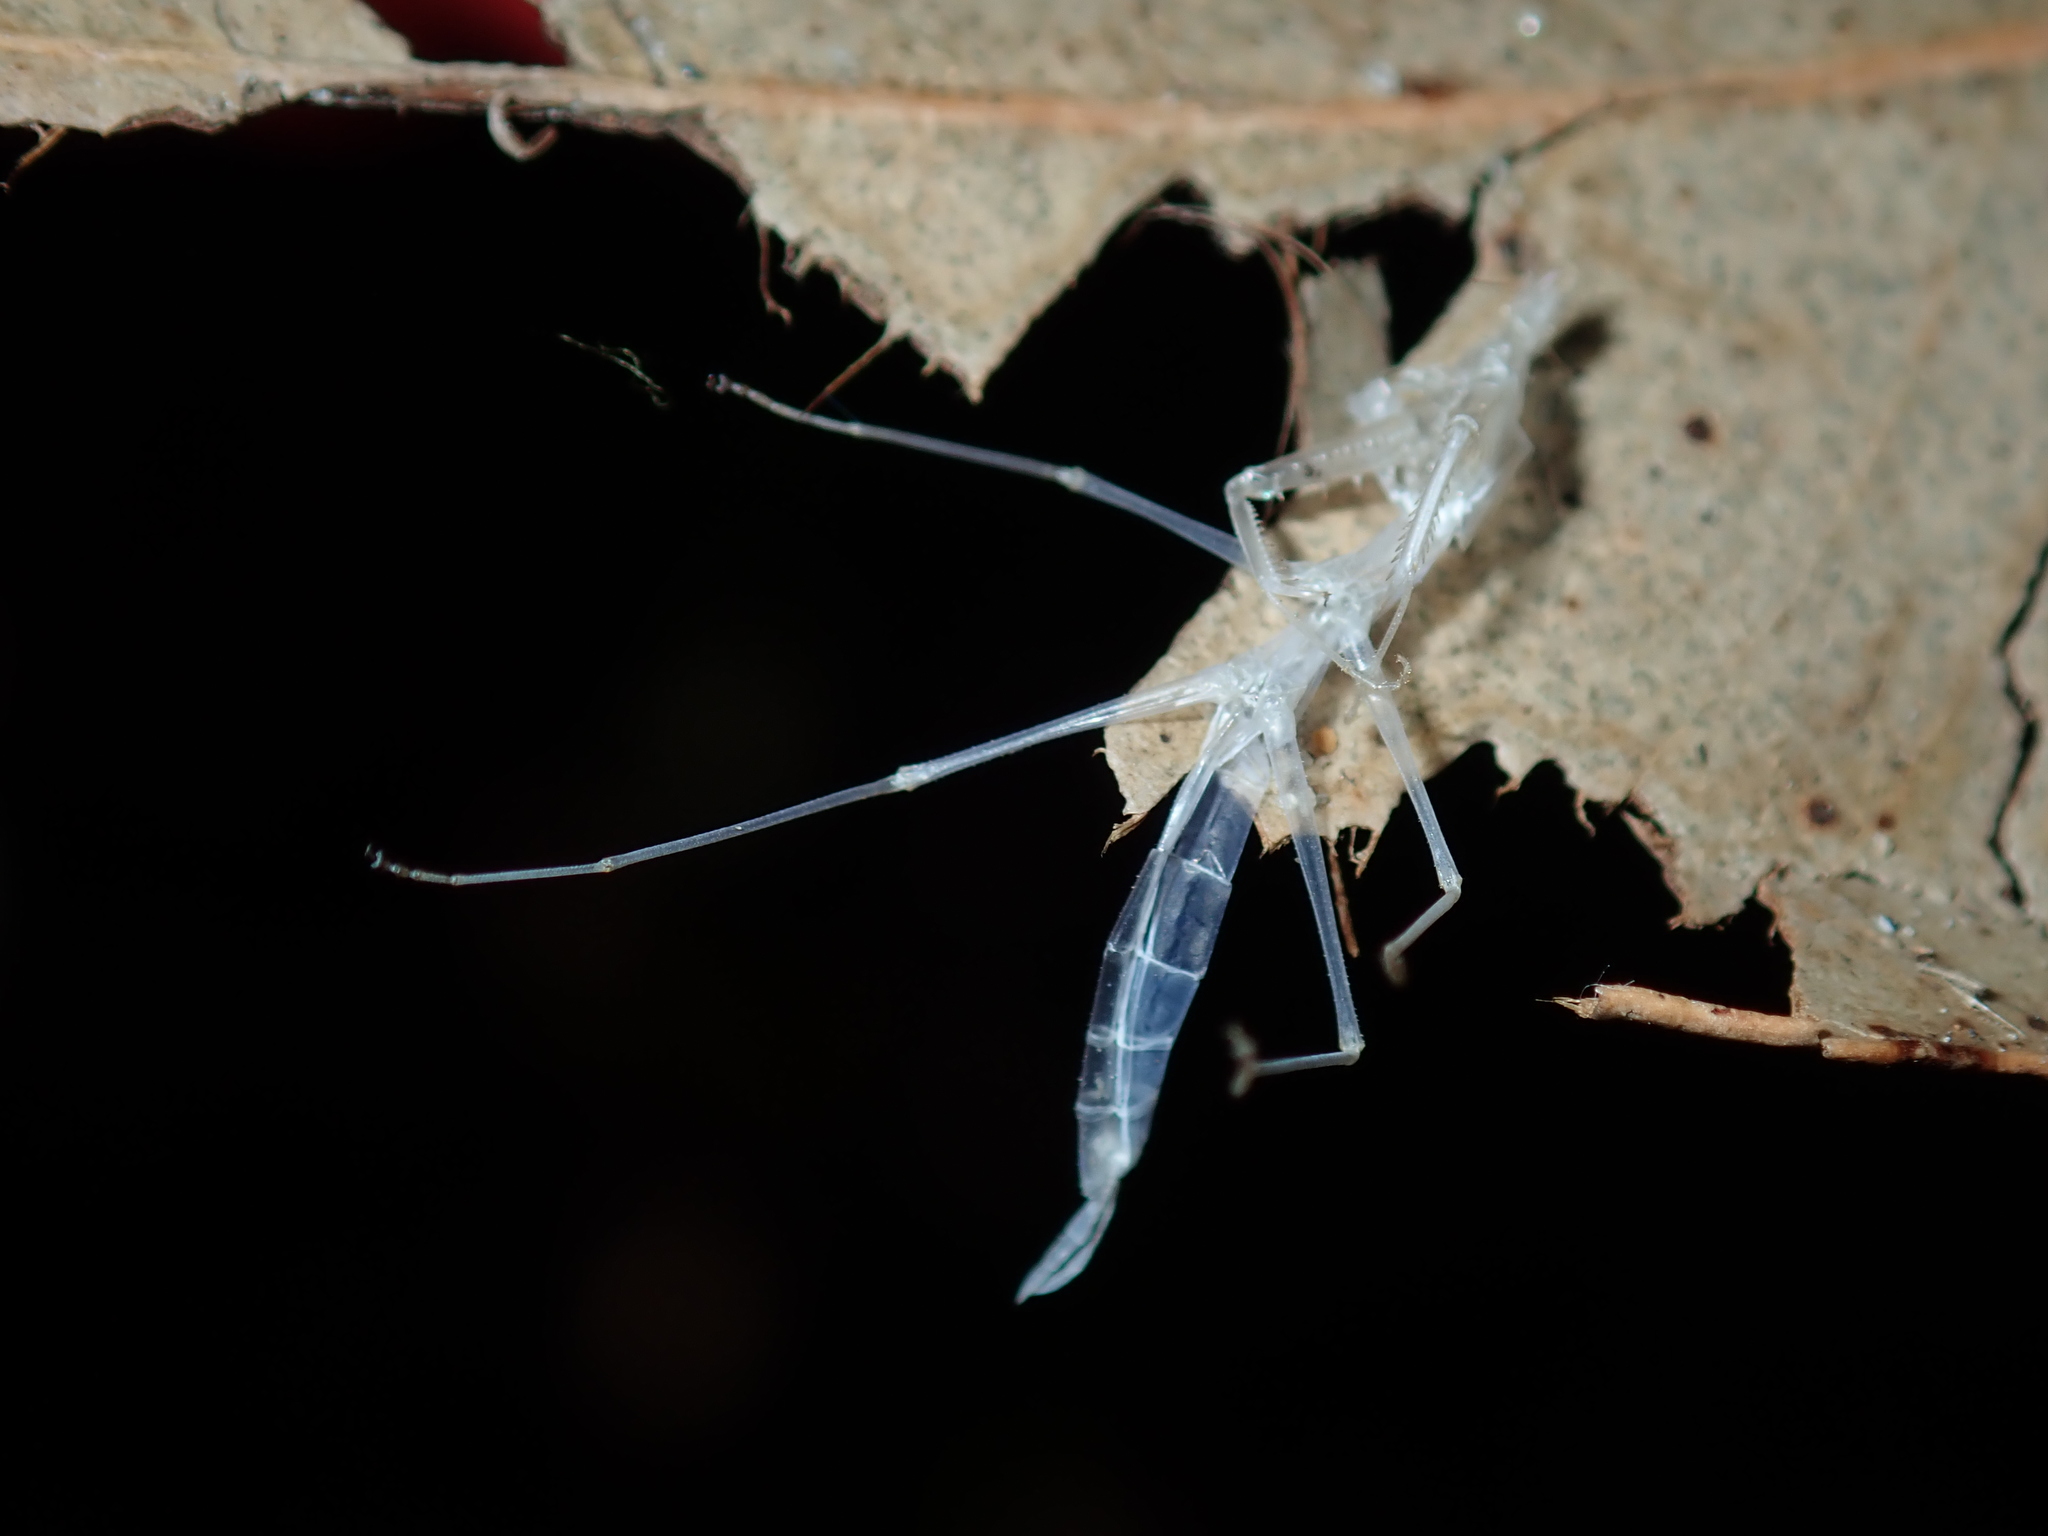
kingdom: Animalia
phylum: Arthropoda
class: Insecta
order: Mantodea
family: Mantidae
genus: Archimantis
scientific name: Archimantis latistyla
